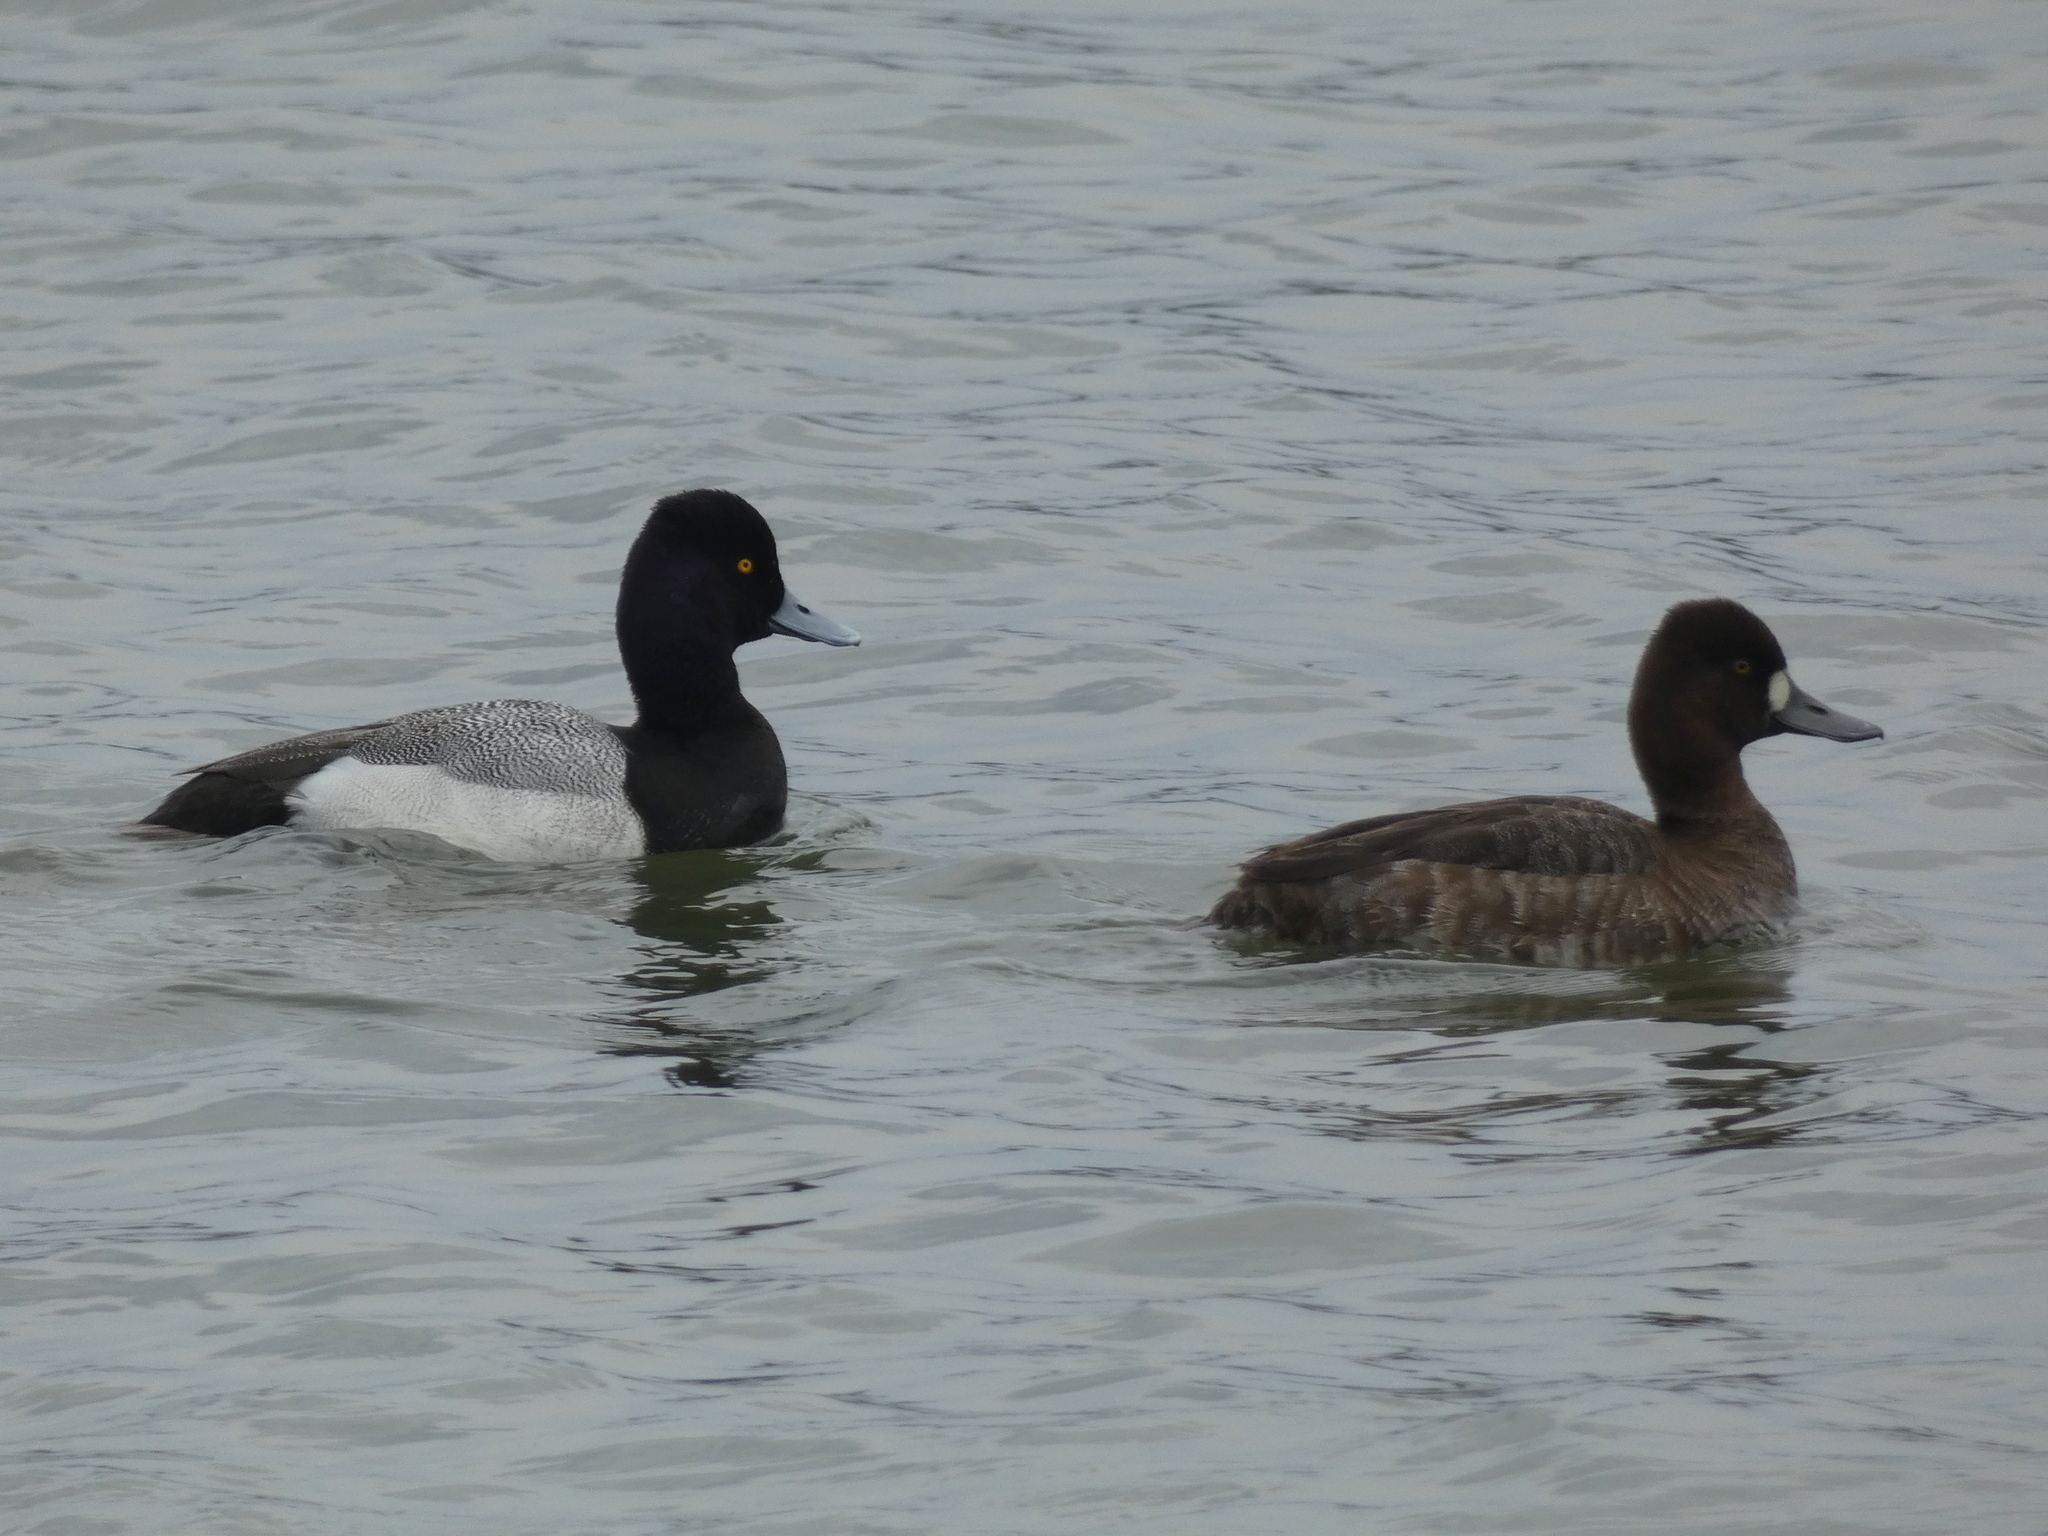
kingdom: Animalia
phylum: Chordata
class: Aves
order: Anseriformes
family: Anatidae
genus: Aythya
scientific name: Aythya affinis
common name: Lesser scaup
